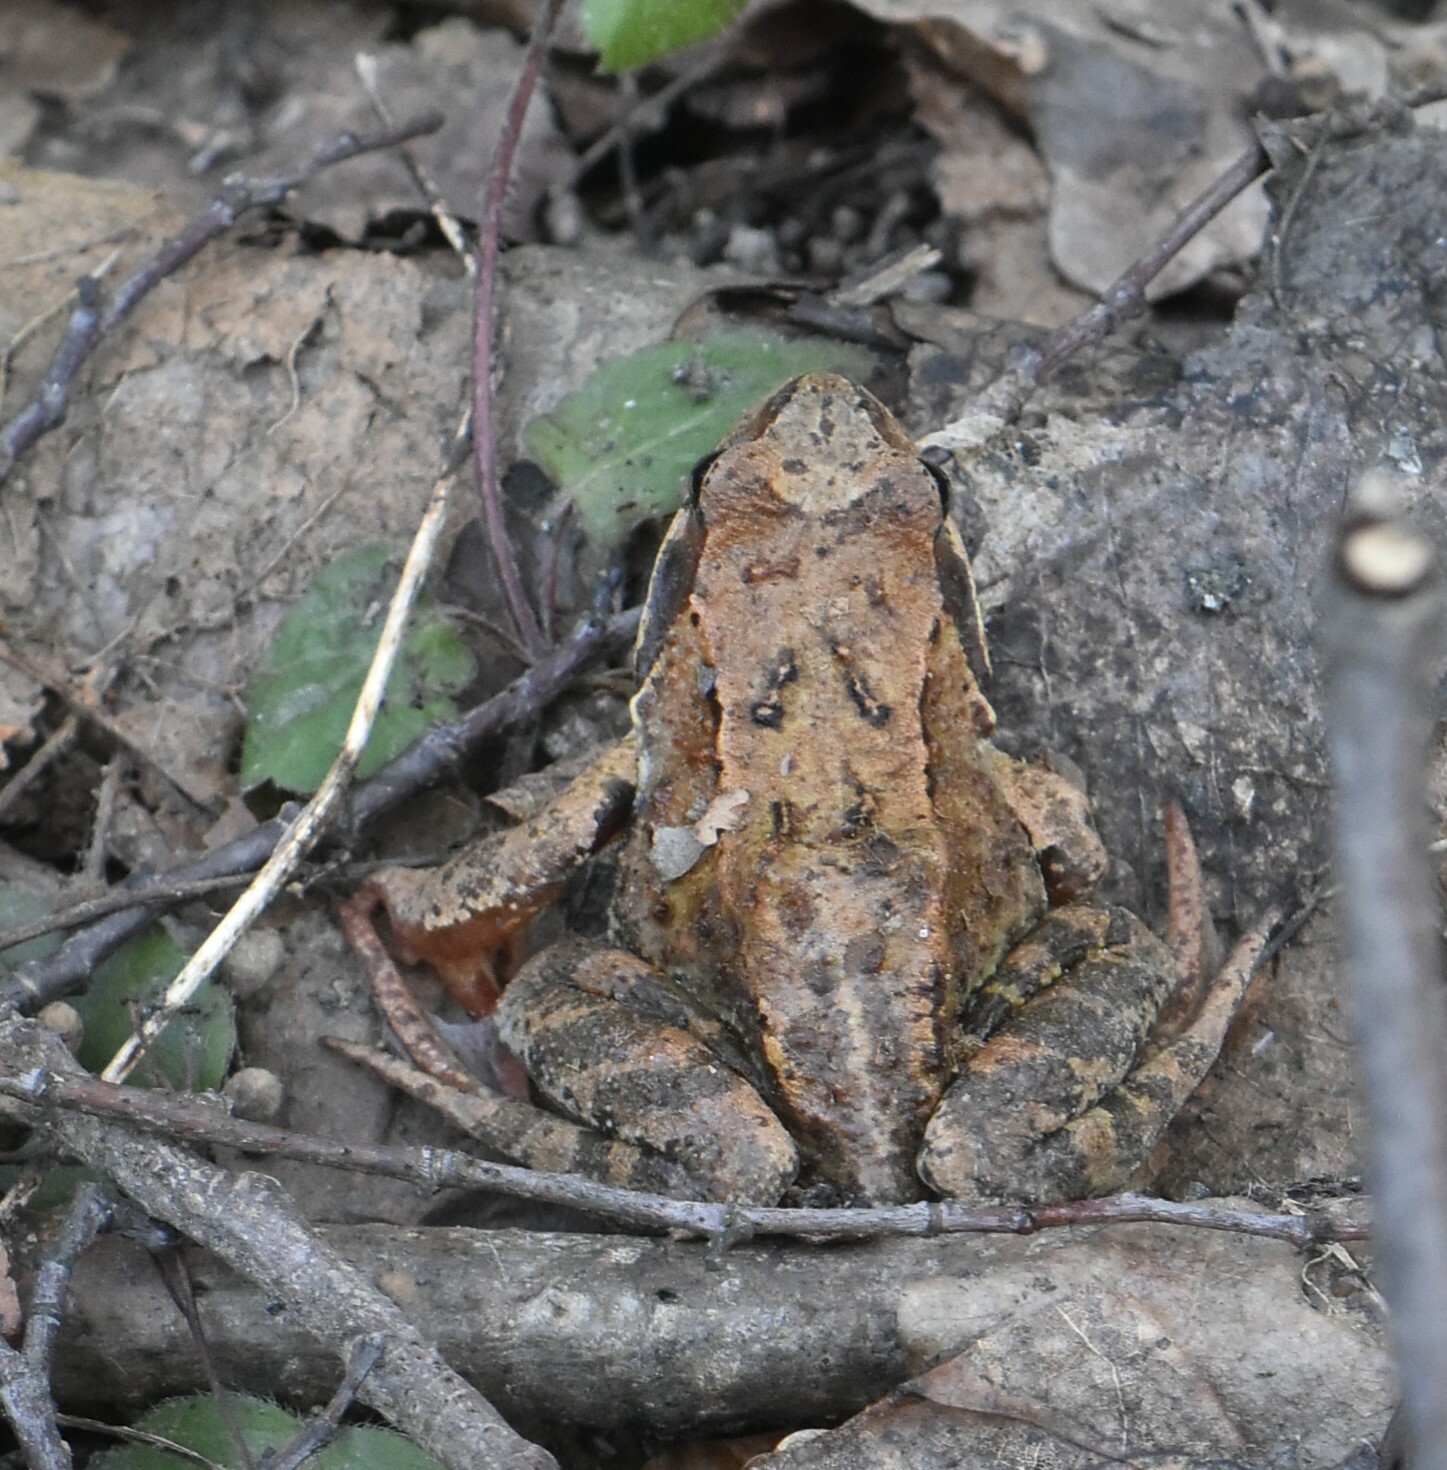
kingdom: Animalia
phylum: Chordata
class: Amphibia
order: Anura
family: Ranidae
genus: Rana
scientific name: Rana temporaria
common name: Common frog
